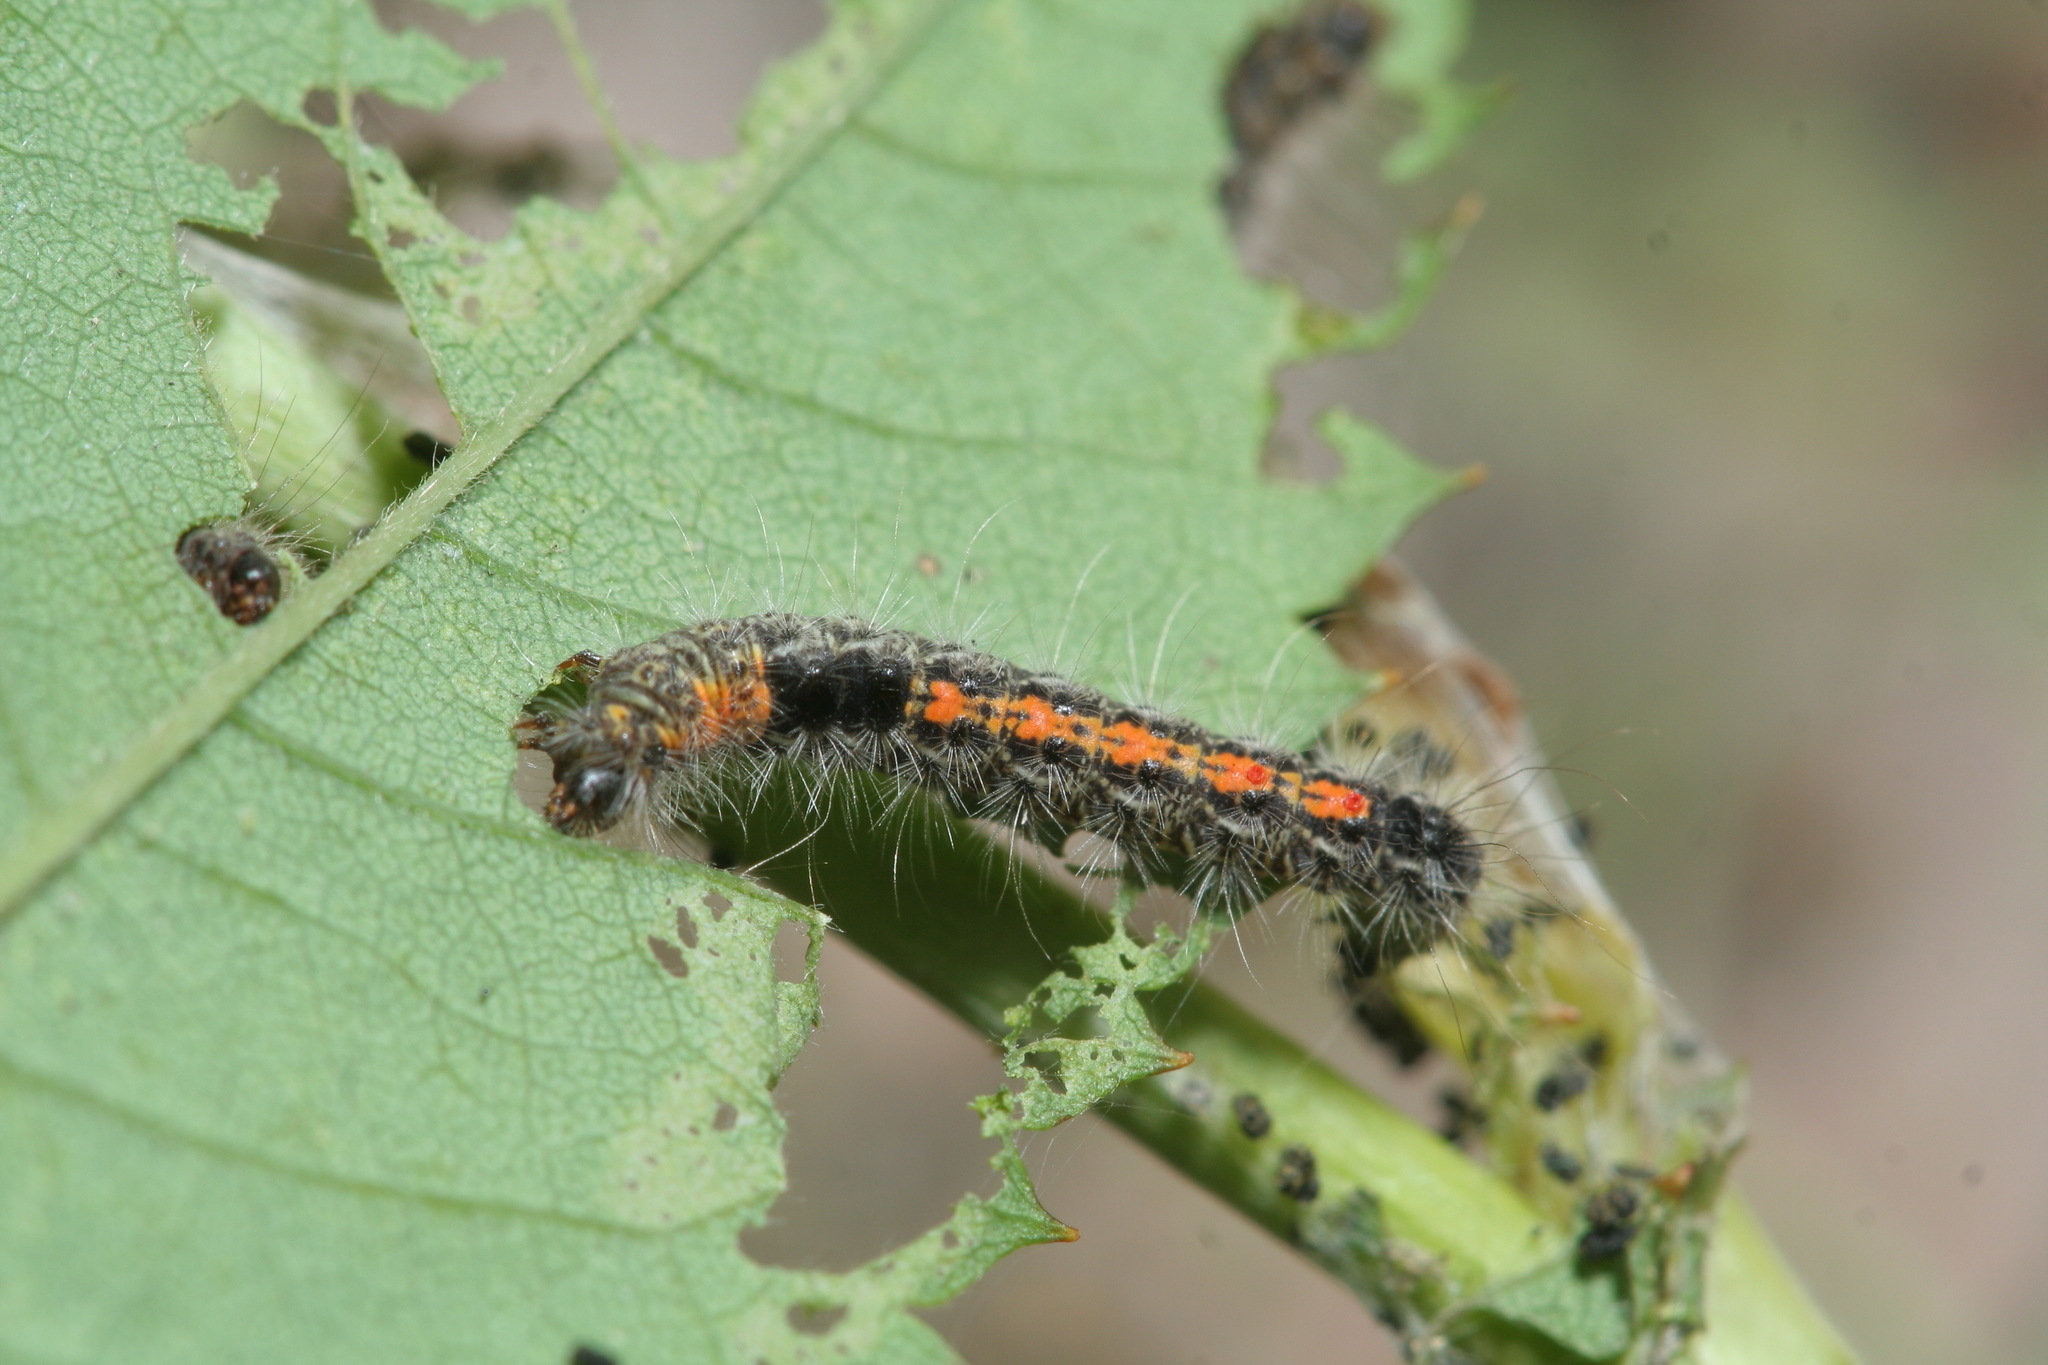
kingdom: Animalia
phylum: Arthropoda
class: Insecta
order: Lepidoptera
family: Erebidae
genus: Euproctis
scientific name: Euproctis kargalika
